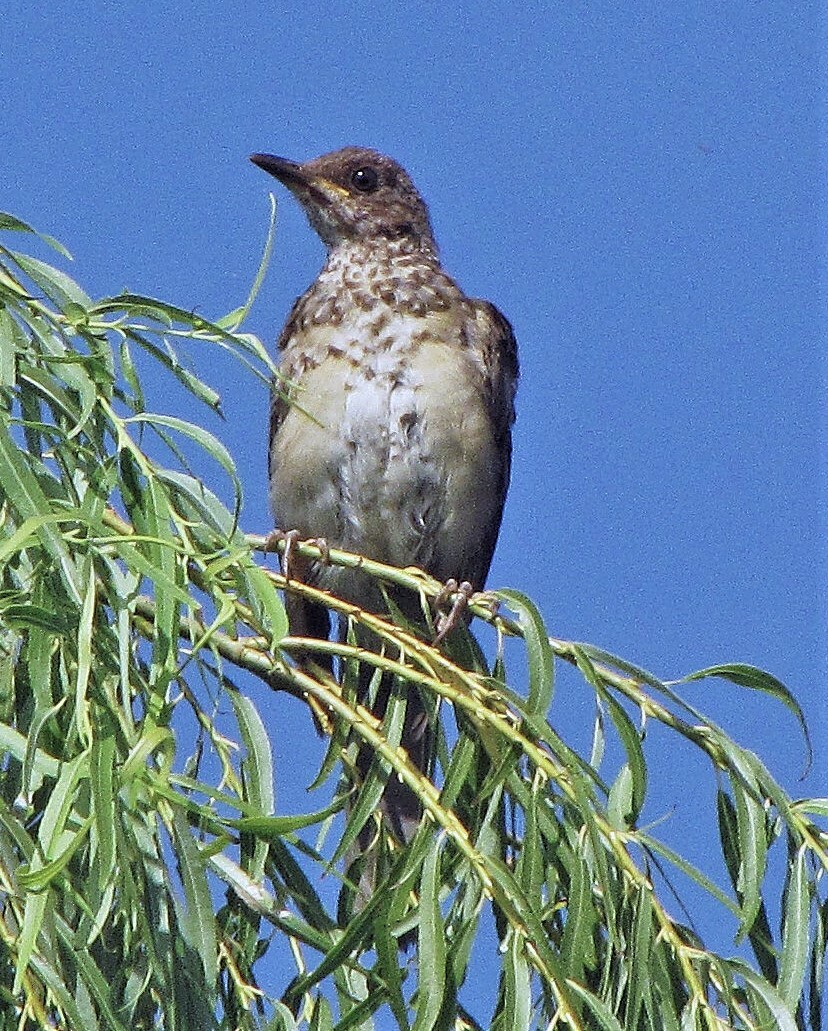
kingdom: Animalia
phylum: Chordata
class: Aves
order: Passeriformes
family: Turdidae
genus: Turdus
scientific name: Turdus amaurochalinus
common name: Creamy-bellied thrush
